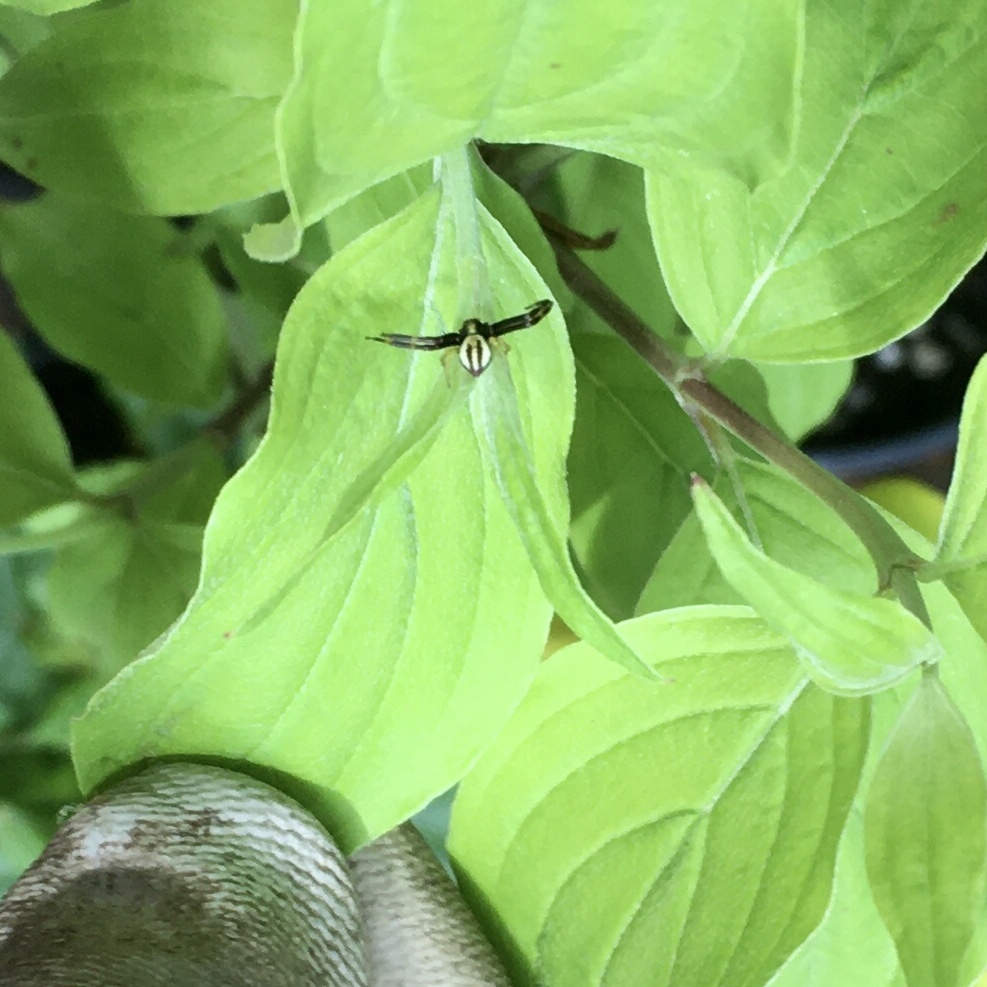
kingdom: Animalia
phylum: Arthropoda
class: Arachnida
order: Araneae
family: Thomisidae
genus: Misumena
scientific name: Misumena vatia
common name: Goldenrod crab spider
